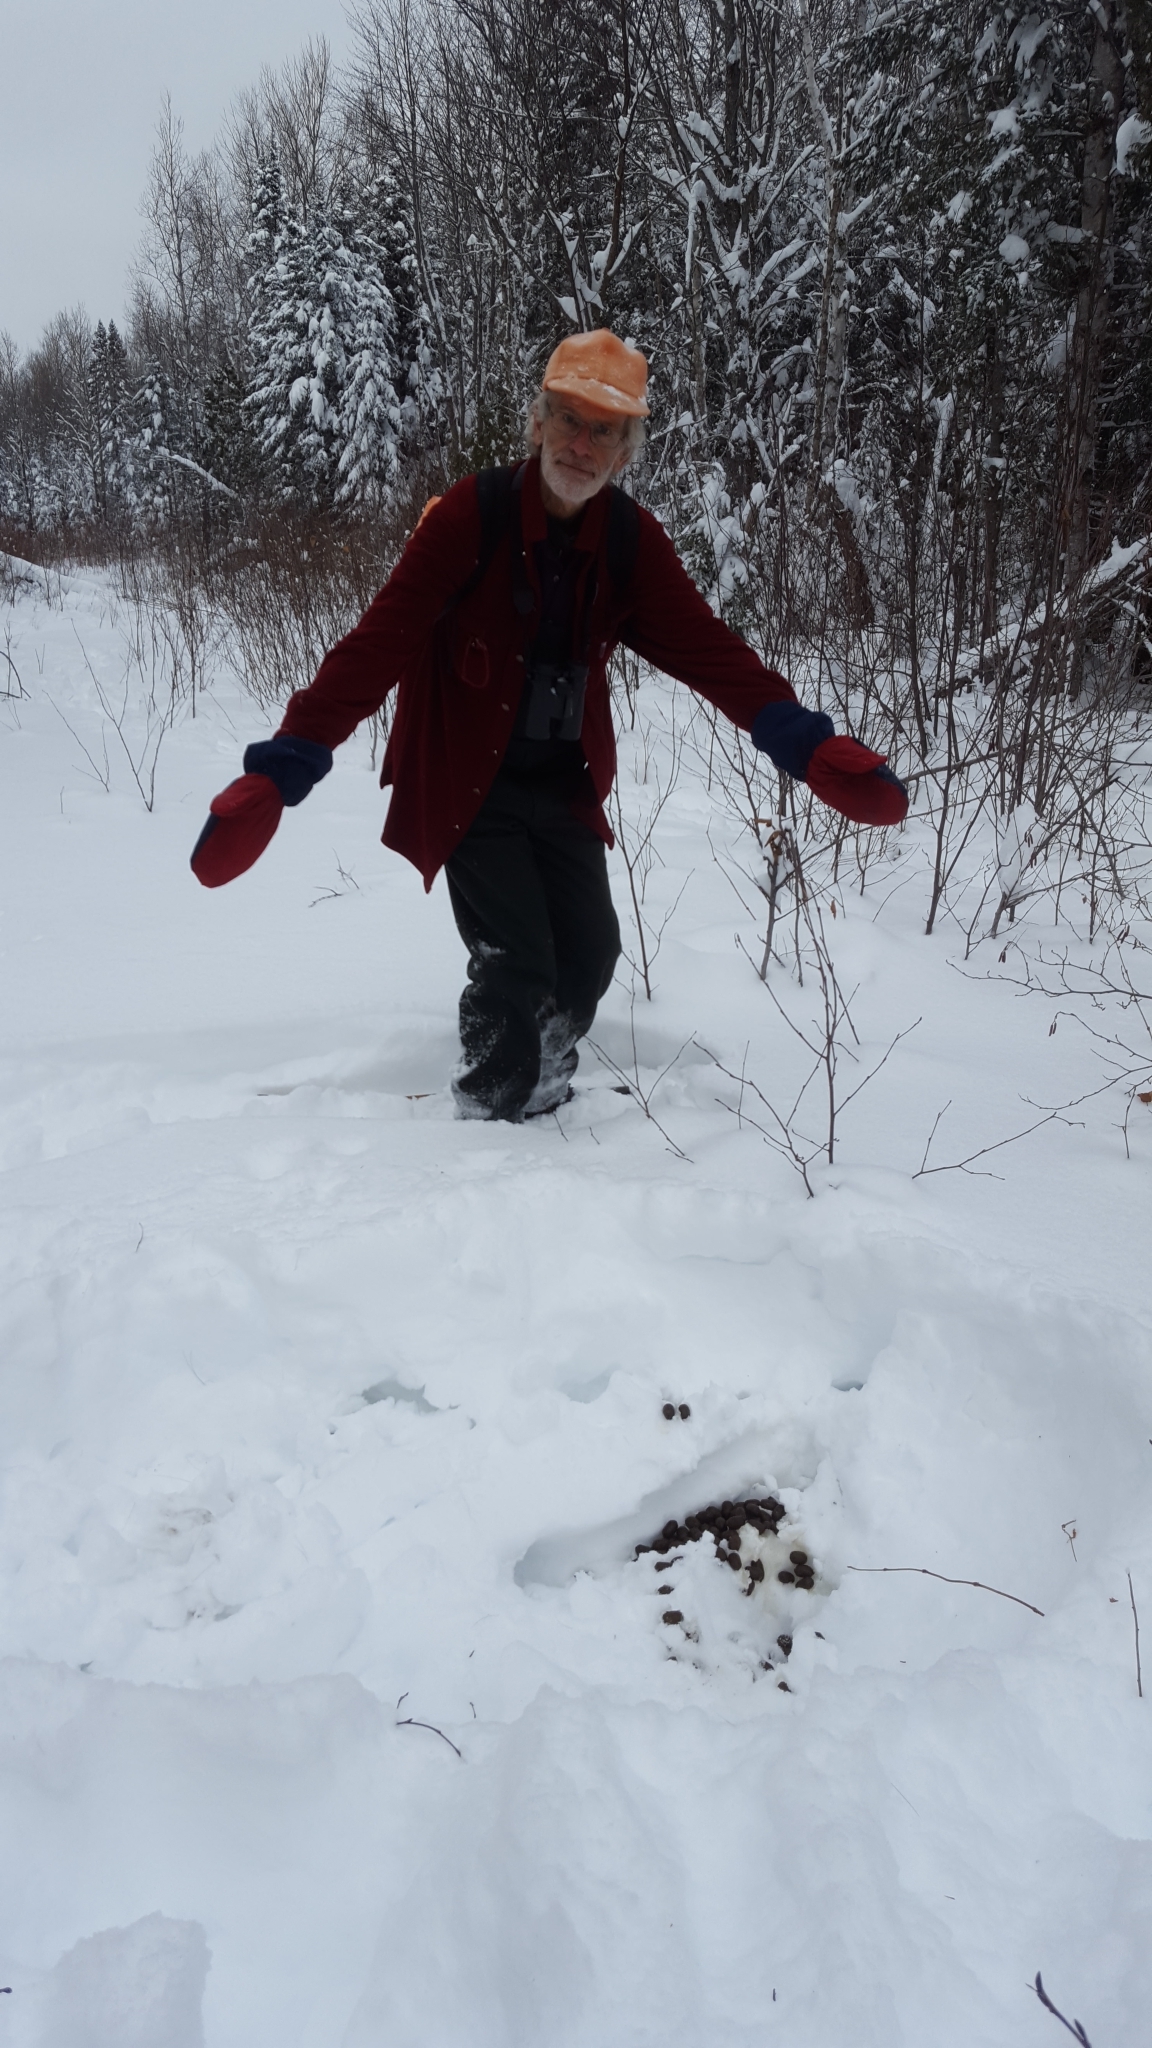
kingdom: Animalia
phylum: Chordata
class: Mammalia
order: Artiodactyla
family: Cervidae
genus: Alces
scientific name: Alces alces
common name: Moose
